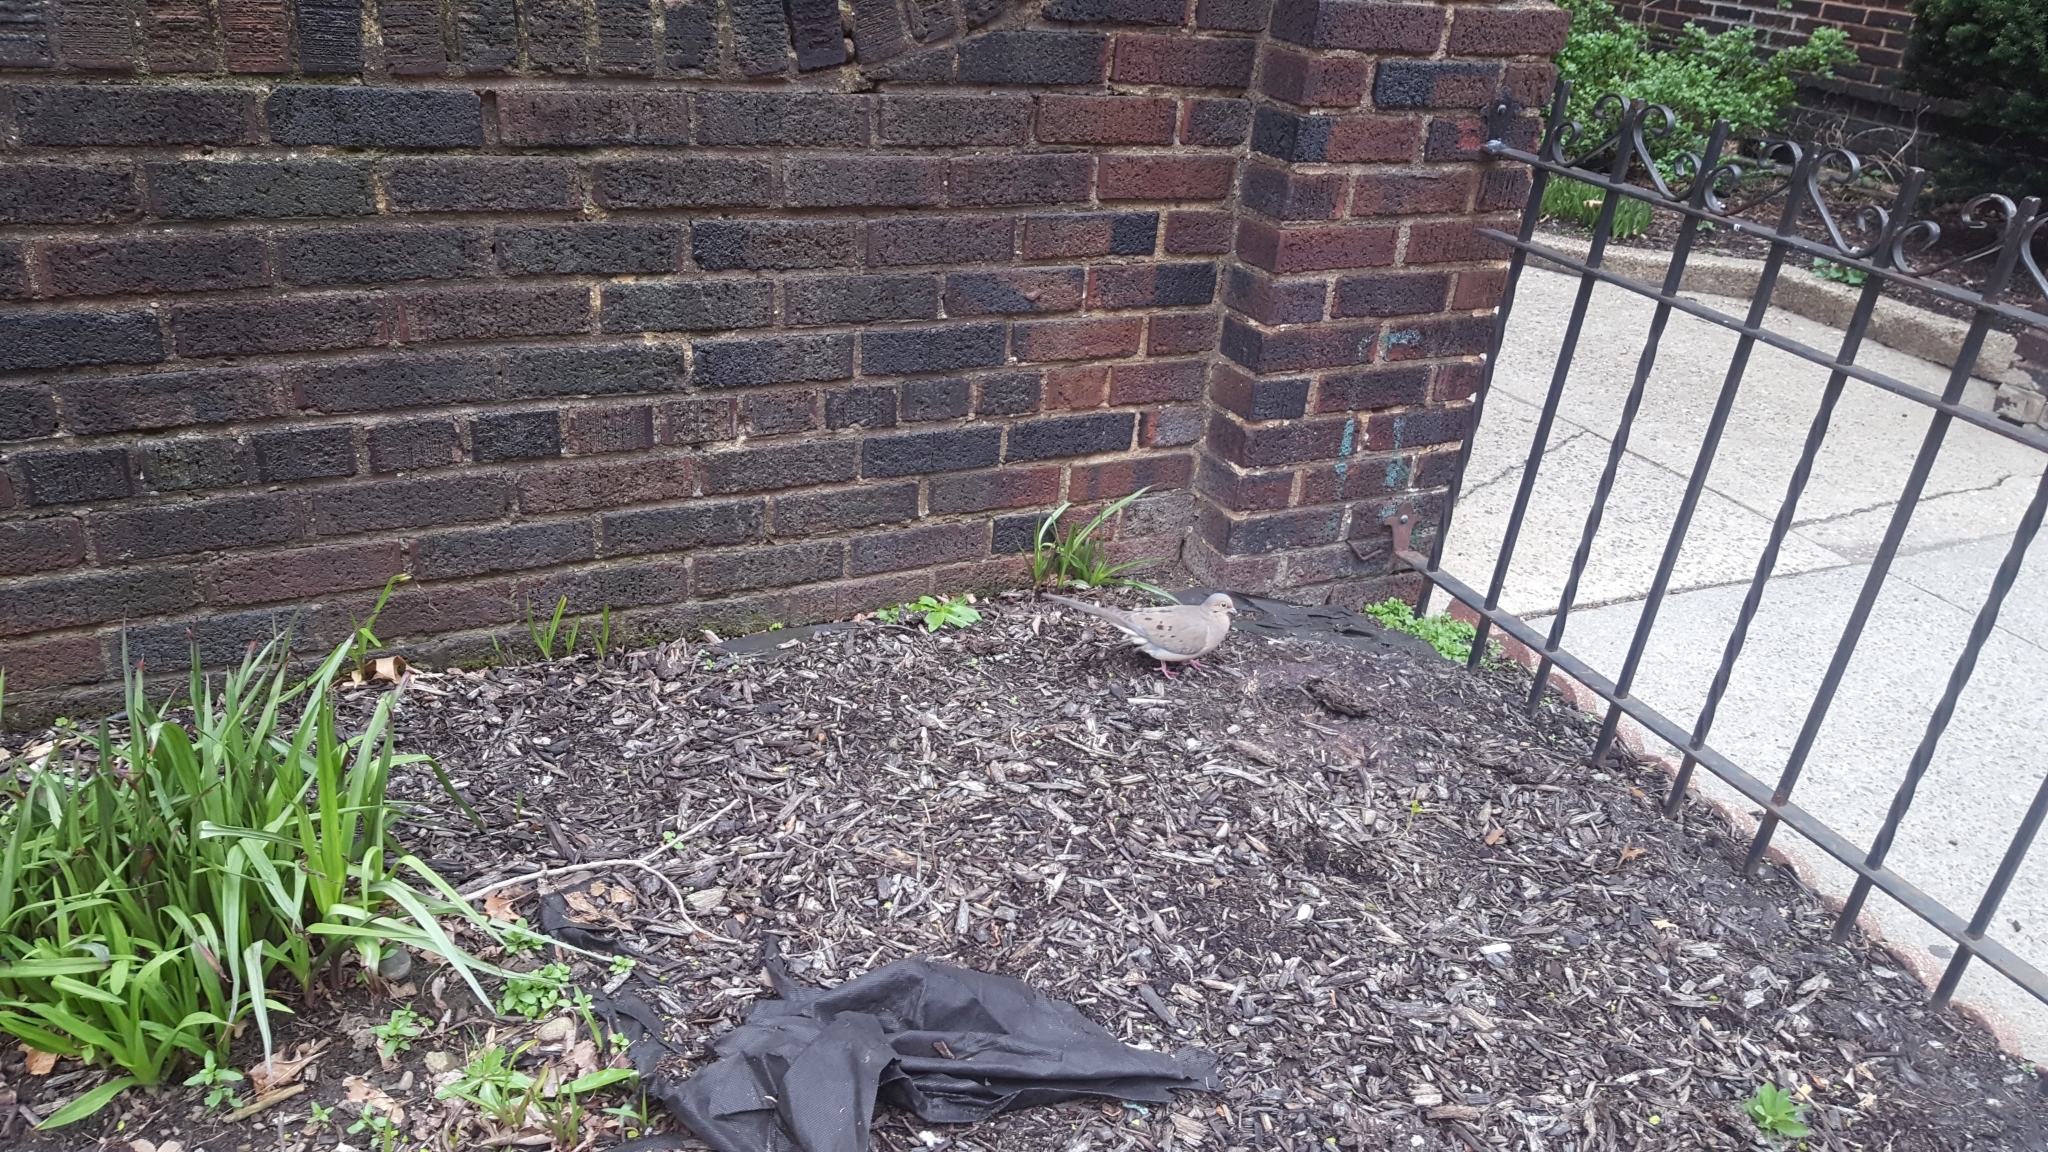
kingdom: Animalia
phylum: Chordata
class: Aves
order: Columbiformes
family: Columbidae
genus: Zenaida
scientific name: Zenaida macroura
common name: Mourning dove
